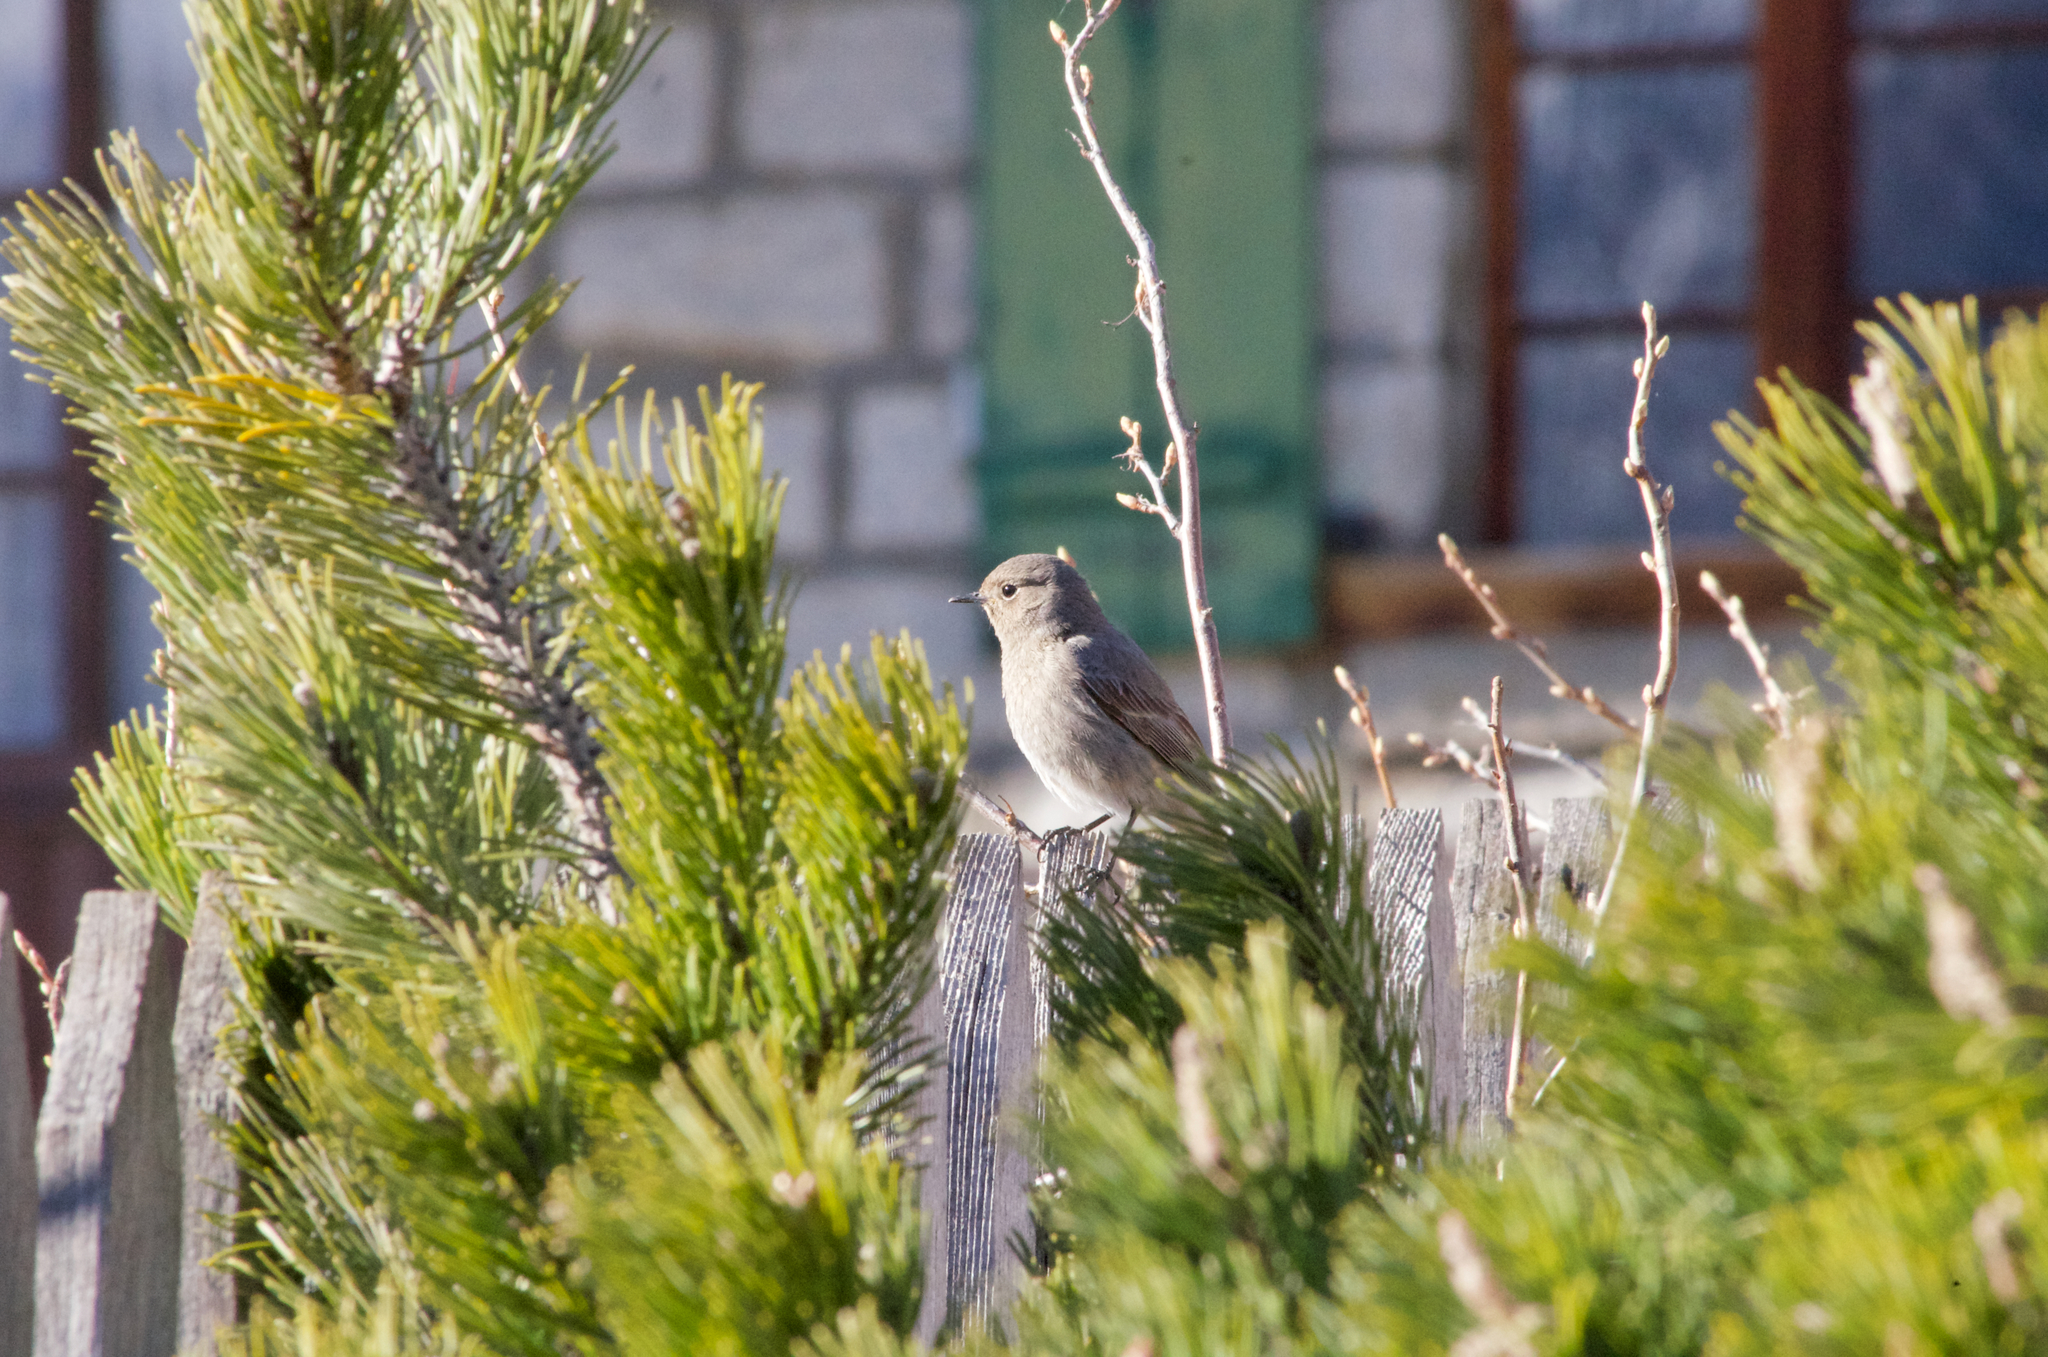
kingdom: Animalia
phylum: Chordata
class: Aves
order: Passeriformes
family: Muscicapidae
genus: Phoenicurus
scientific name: Phoenicurus ochruros
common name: Black redstart
